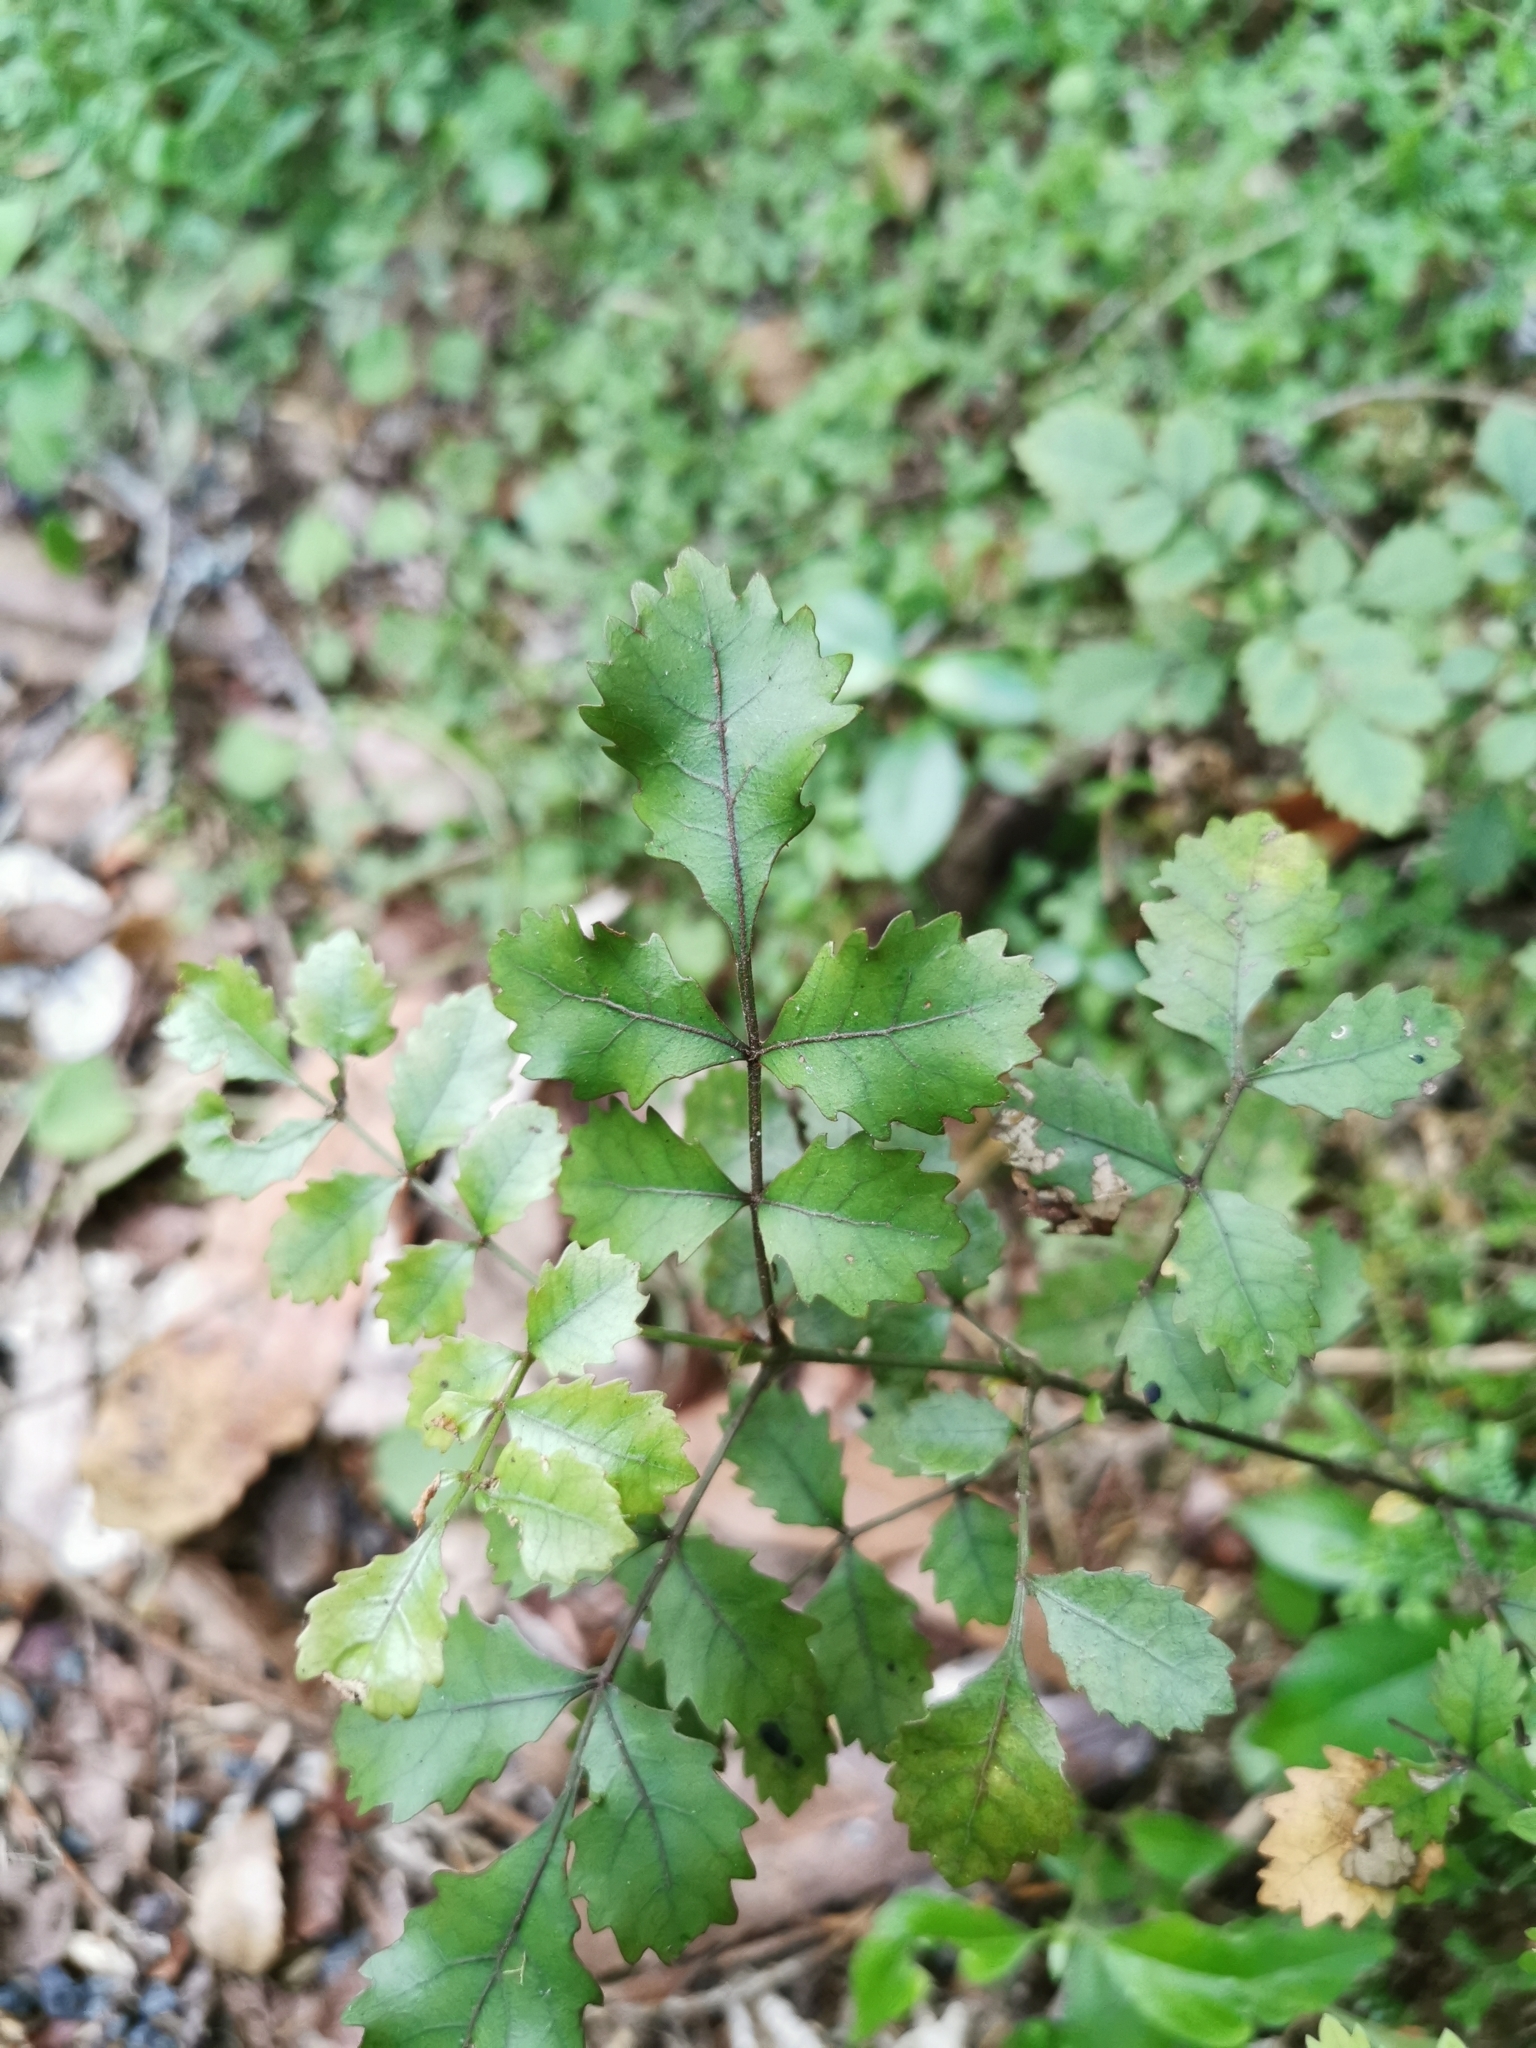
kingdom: Plantae
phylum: Tracheophyta
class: Magnoliopsida
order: Oxalidales
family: Cunoniaceae
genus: Pterophylla
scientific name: Pterophylla sylvicola
